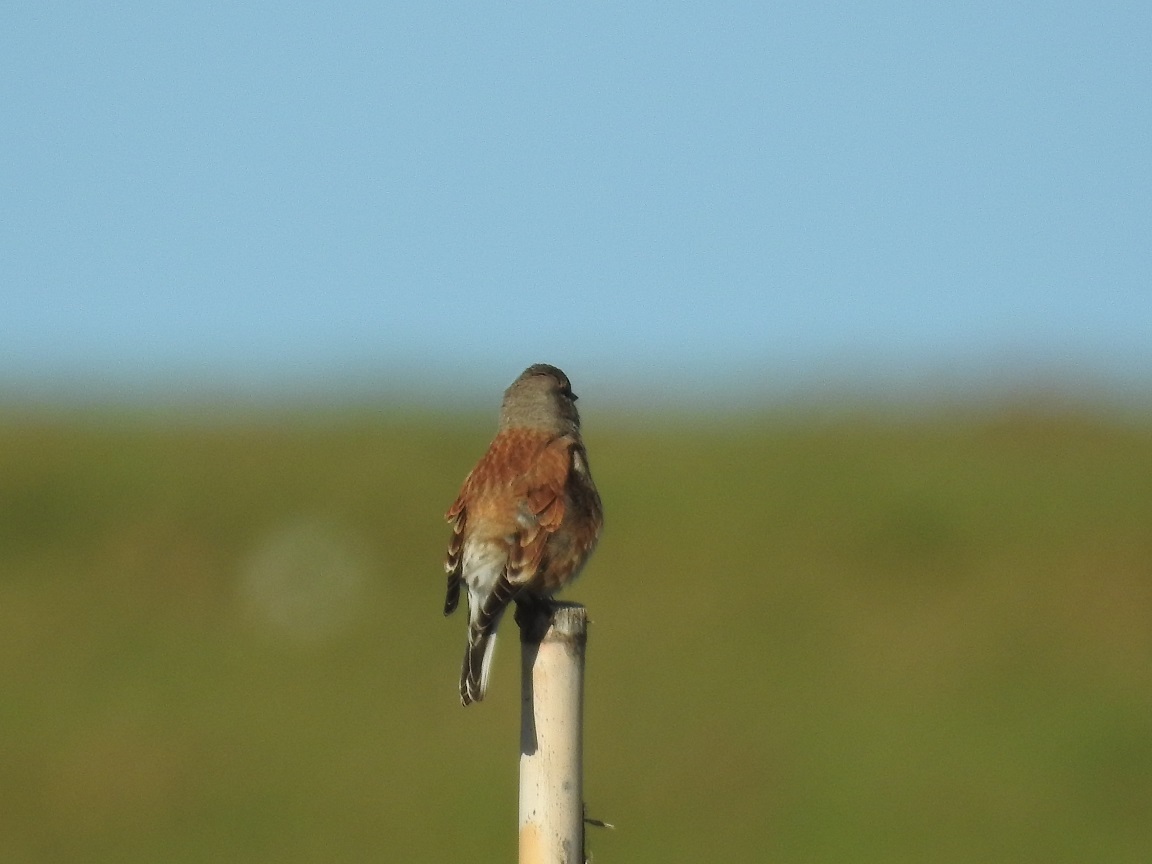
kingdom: Animalia
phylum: Chordata
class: Aves
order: Passeriformes
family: Fringillidae
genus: Linaria
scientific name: Linaria cannabina
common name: Common linnet
